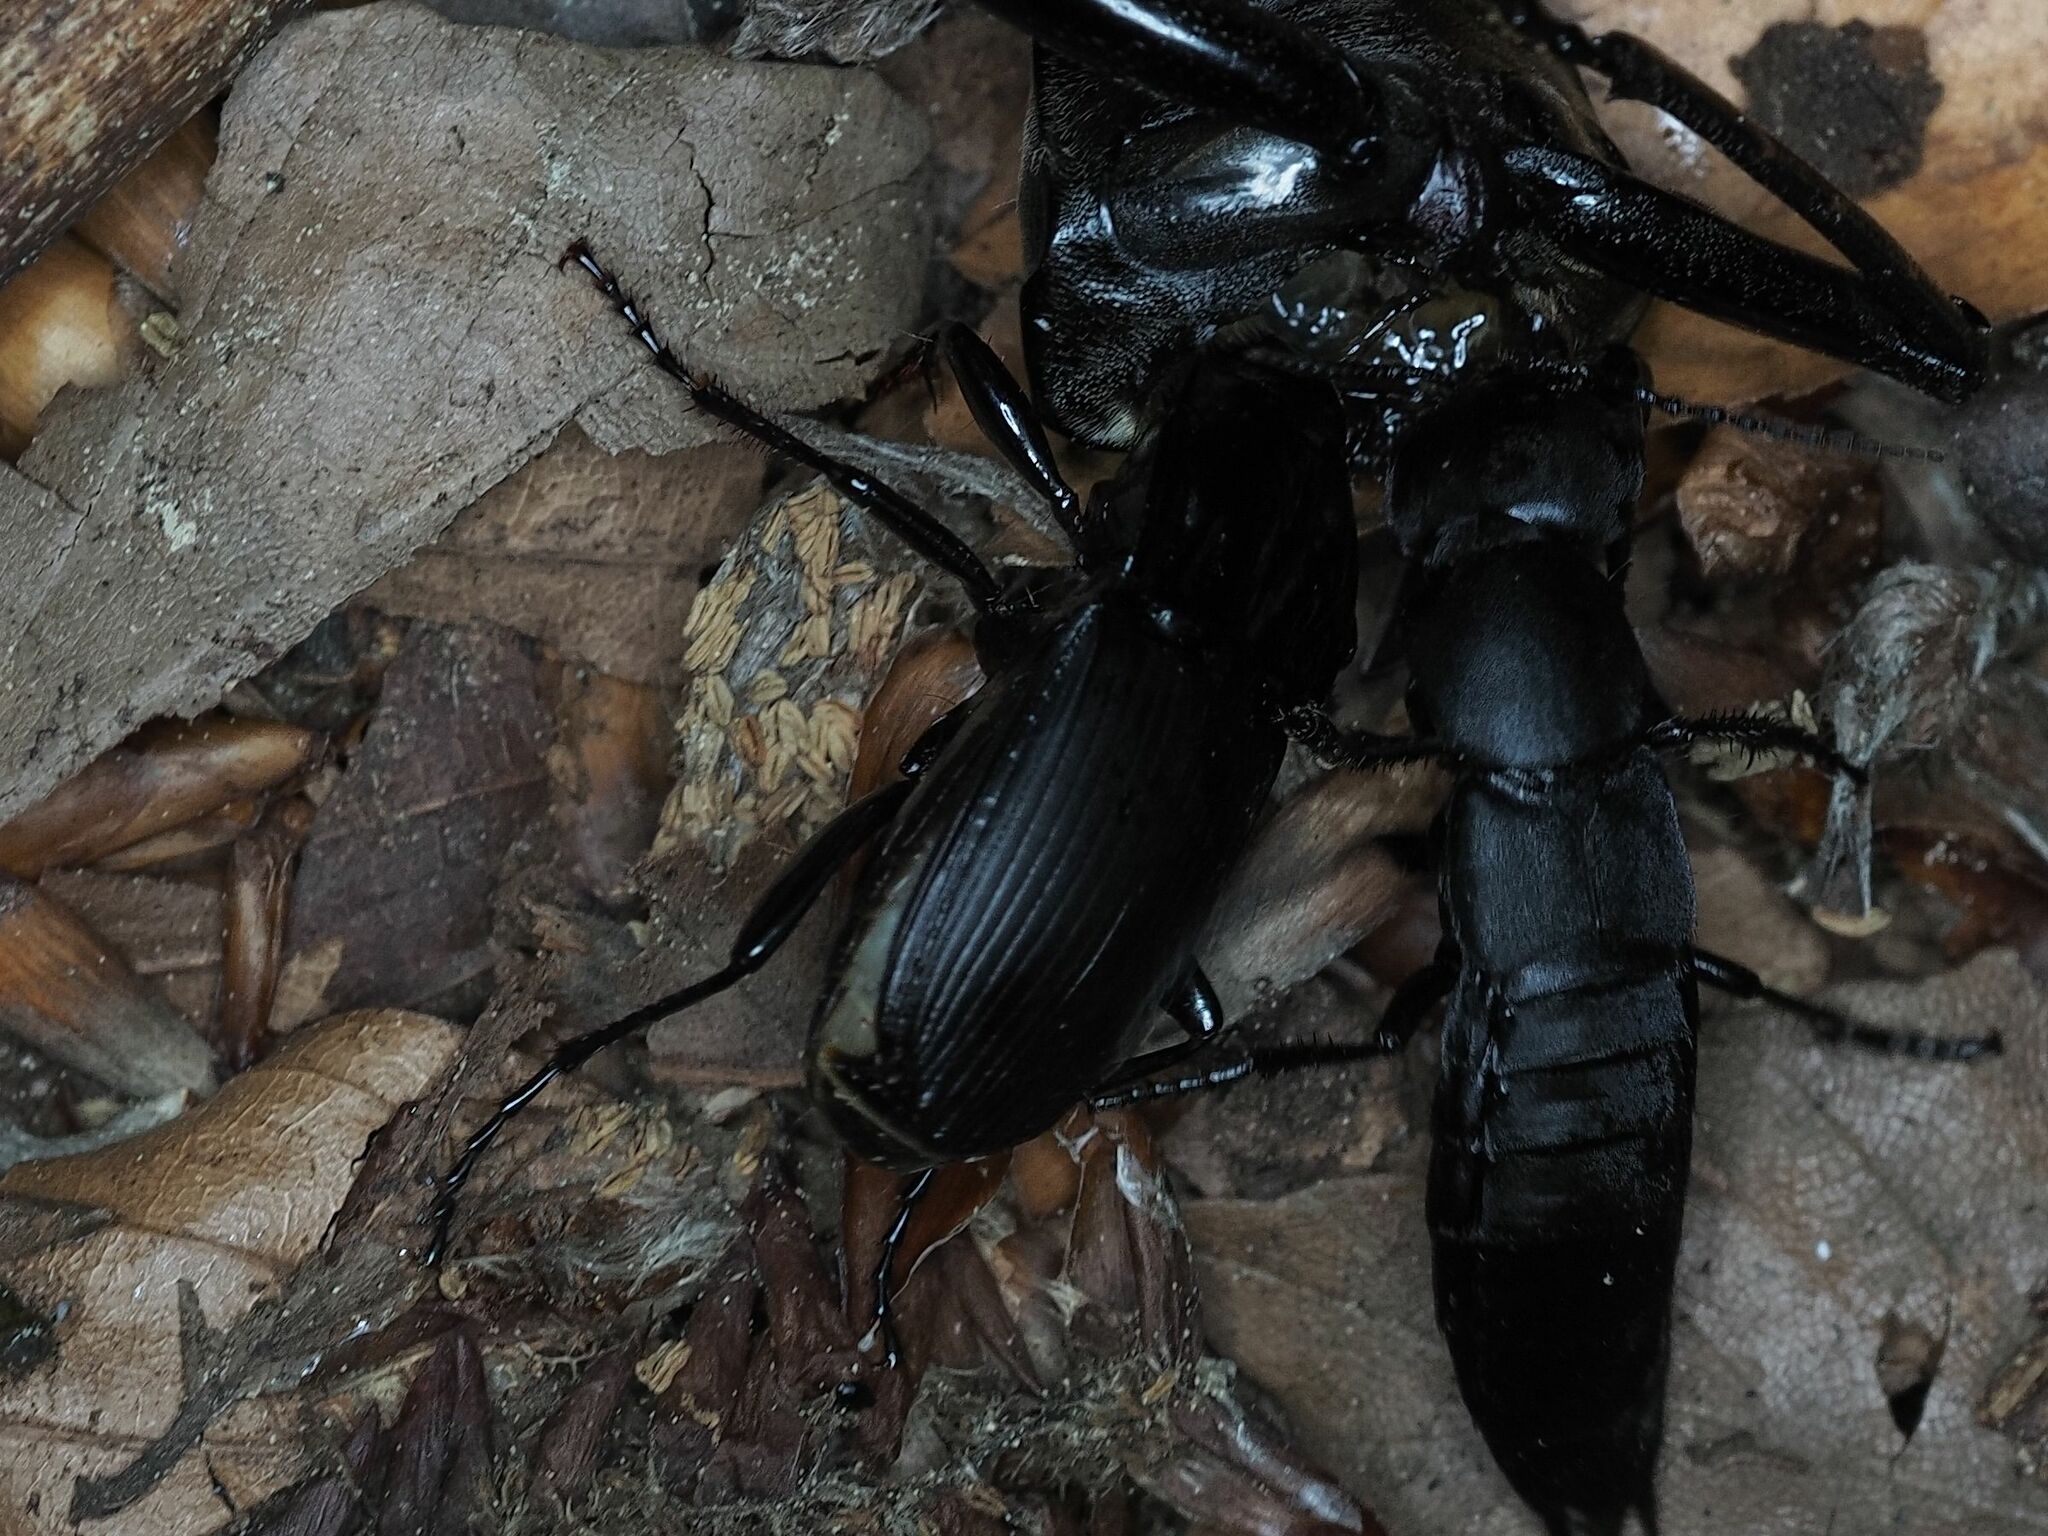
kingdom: Animalia
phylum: Arthropoda
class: Insecta
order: Coleoptera
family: Carabidae
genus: Abax
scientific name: Abax parallelepipedus
